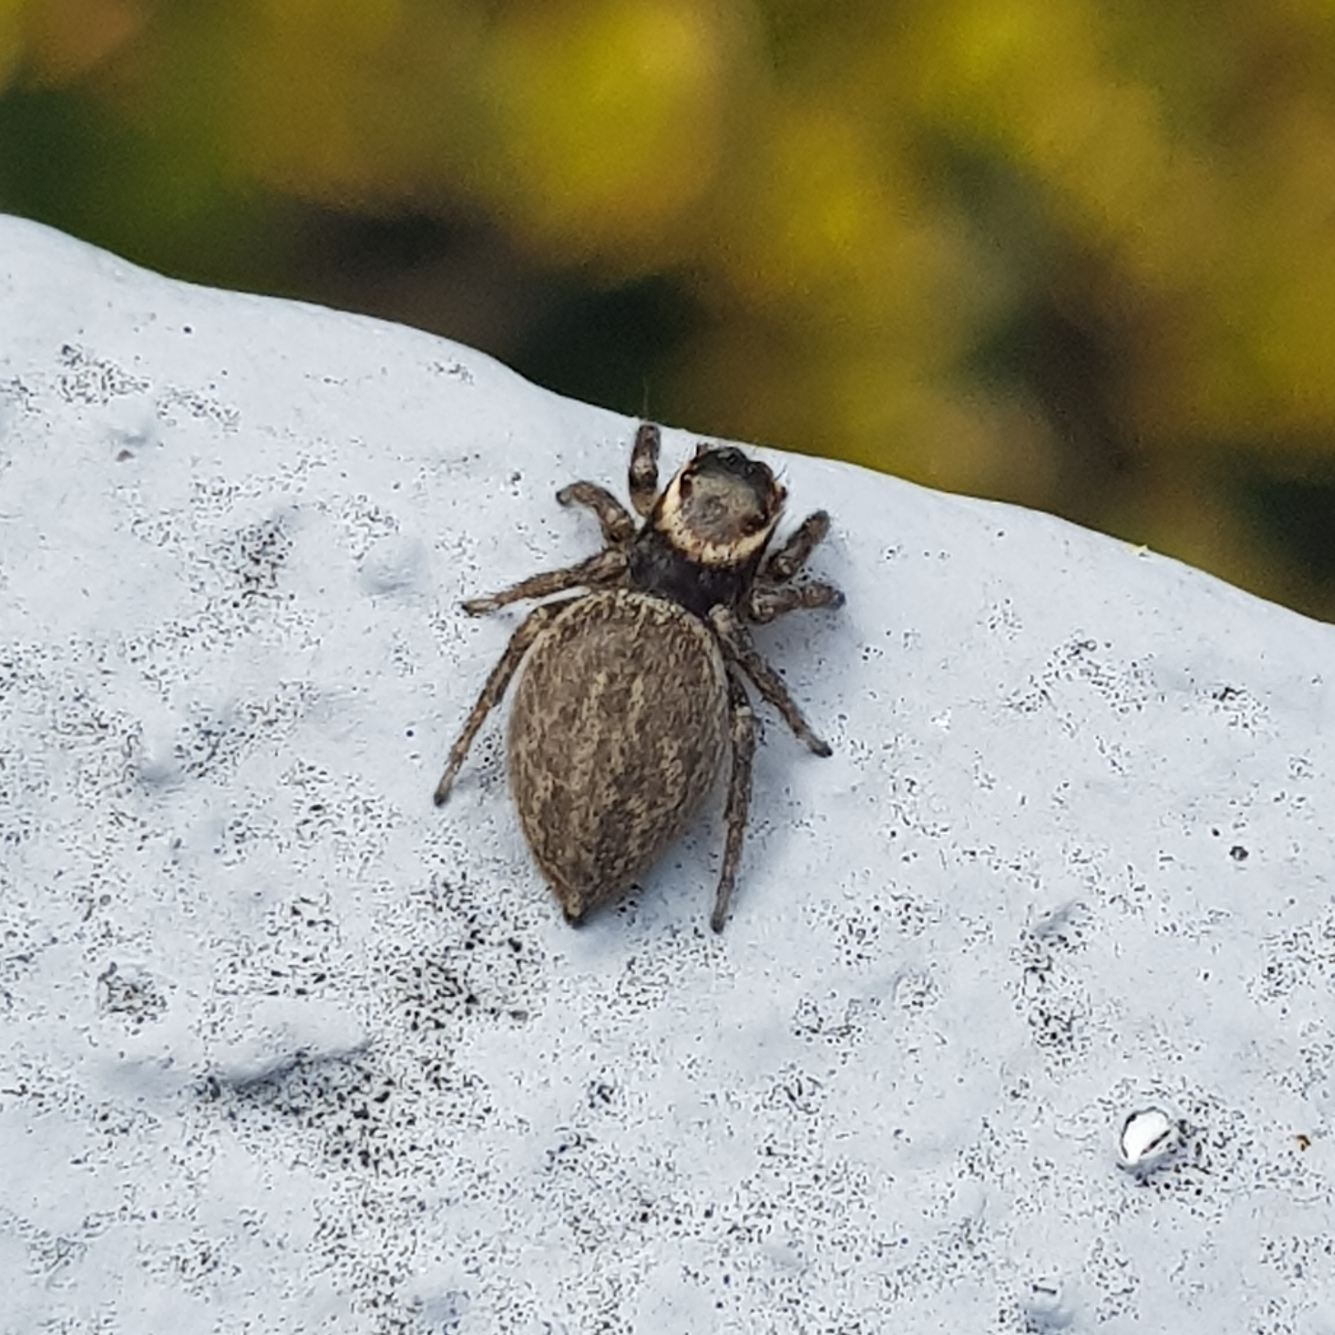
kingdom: Animalia
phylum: Arthropoda
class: Arachnida
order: Araneae
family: Salticidae
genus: Maratus
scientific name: Maratus griseus
